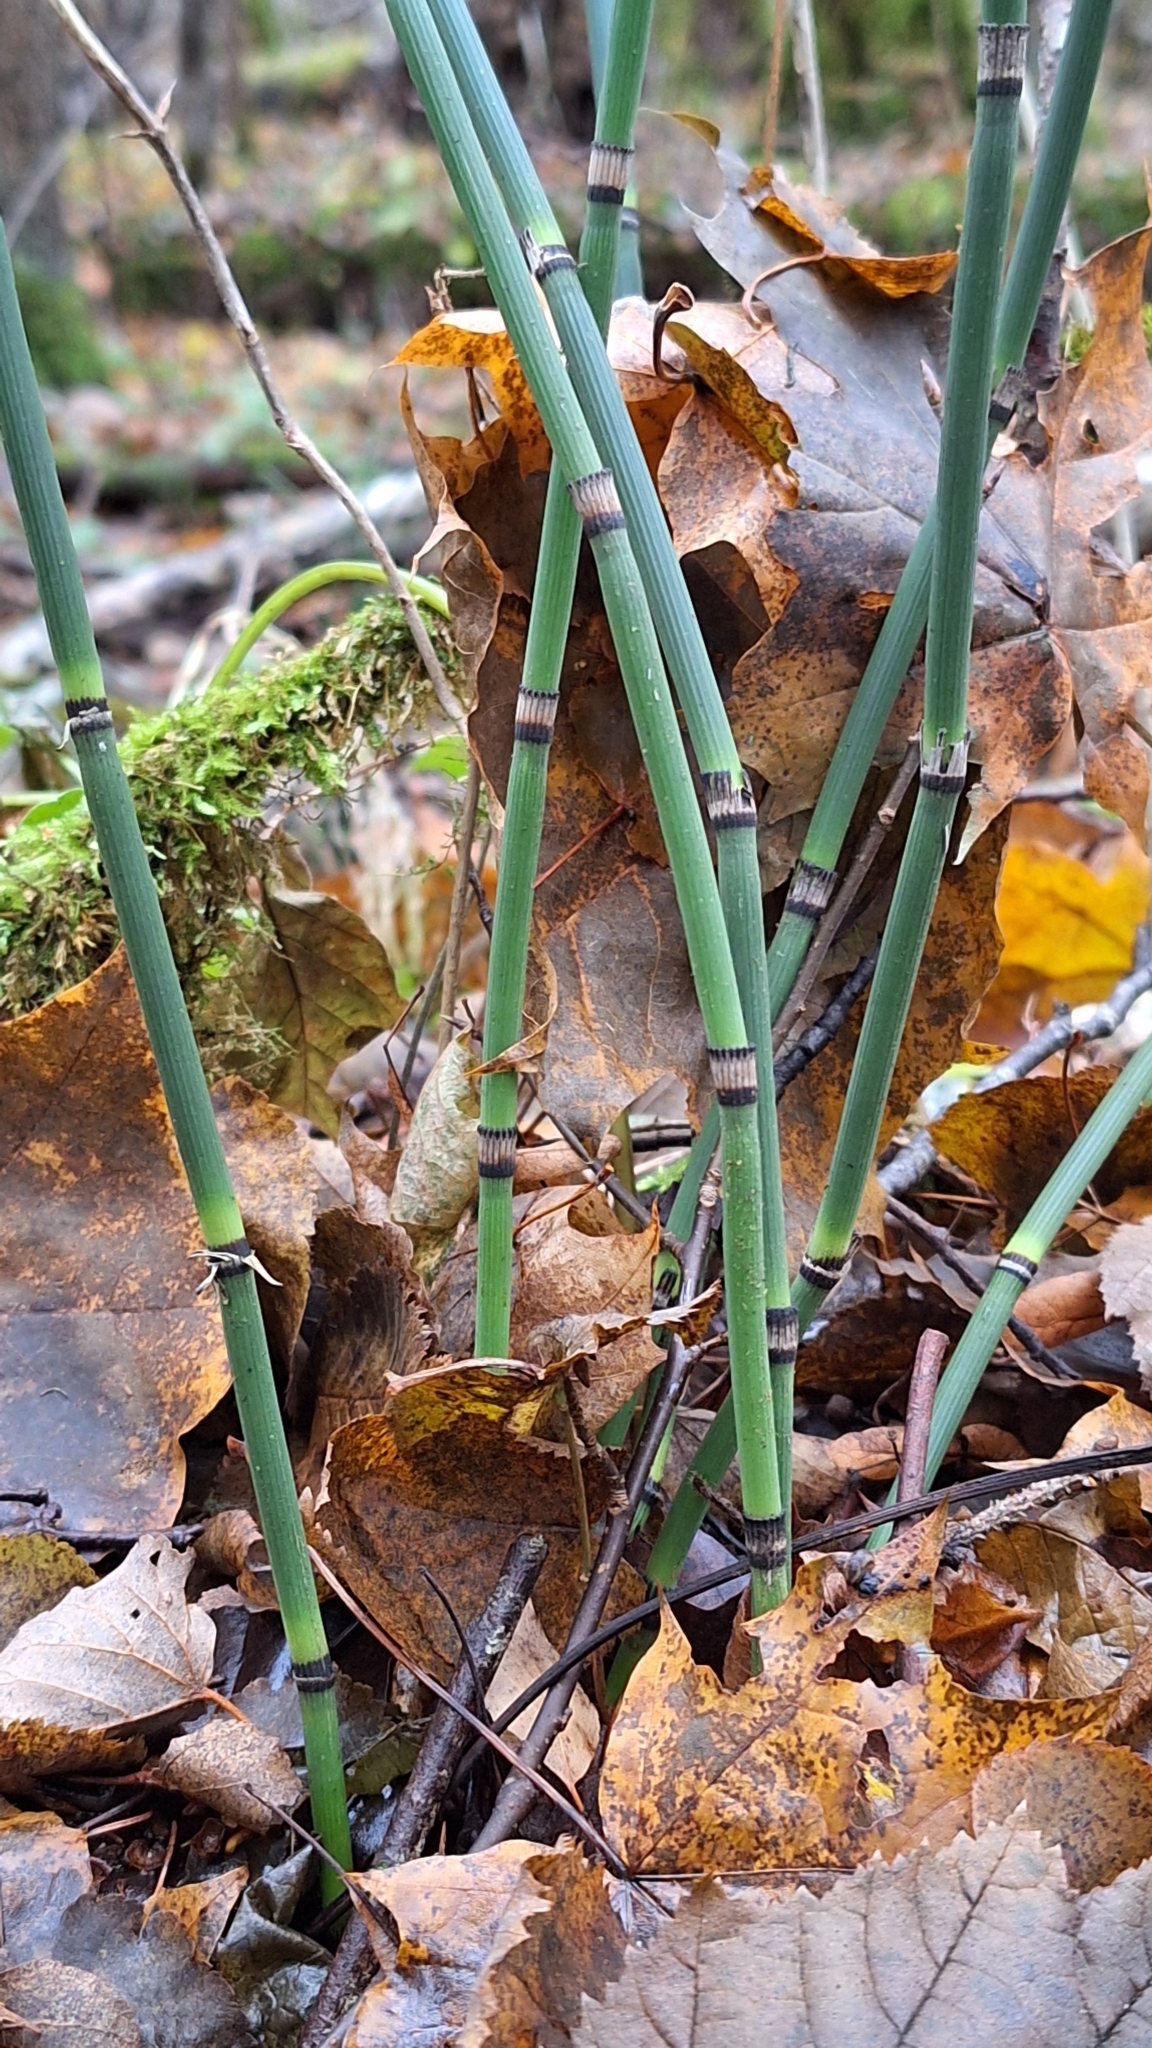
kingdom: Plantae
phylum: Tracheophyta
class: Polypodiopsida
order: Equisetales
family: Equisetaceae
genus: Equisetum
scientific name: Equisetum hyemale
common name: Rough horsetail
